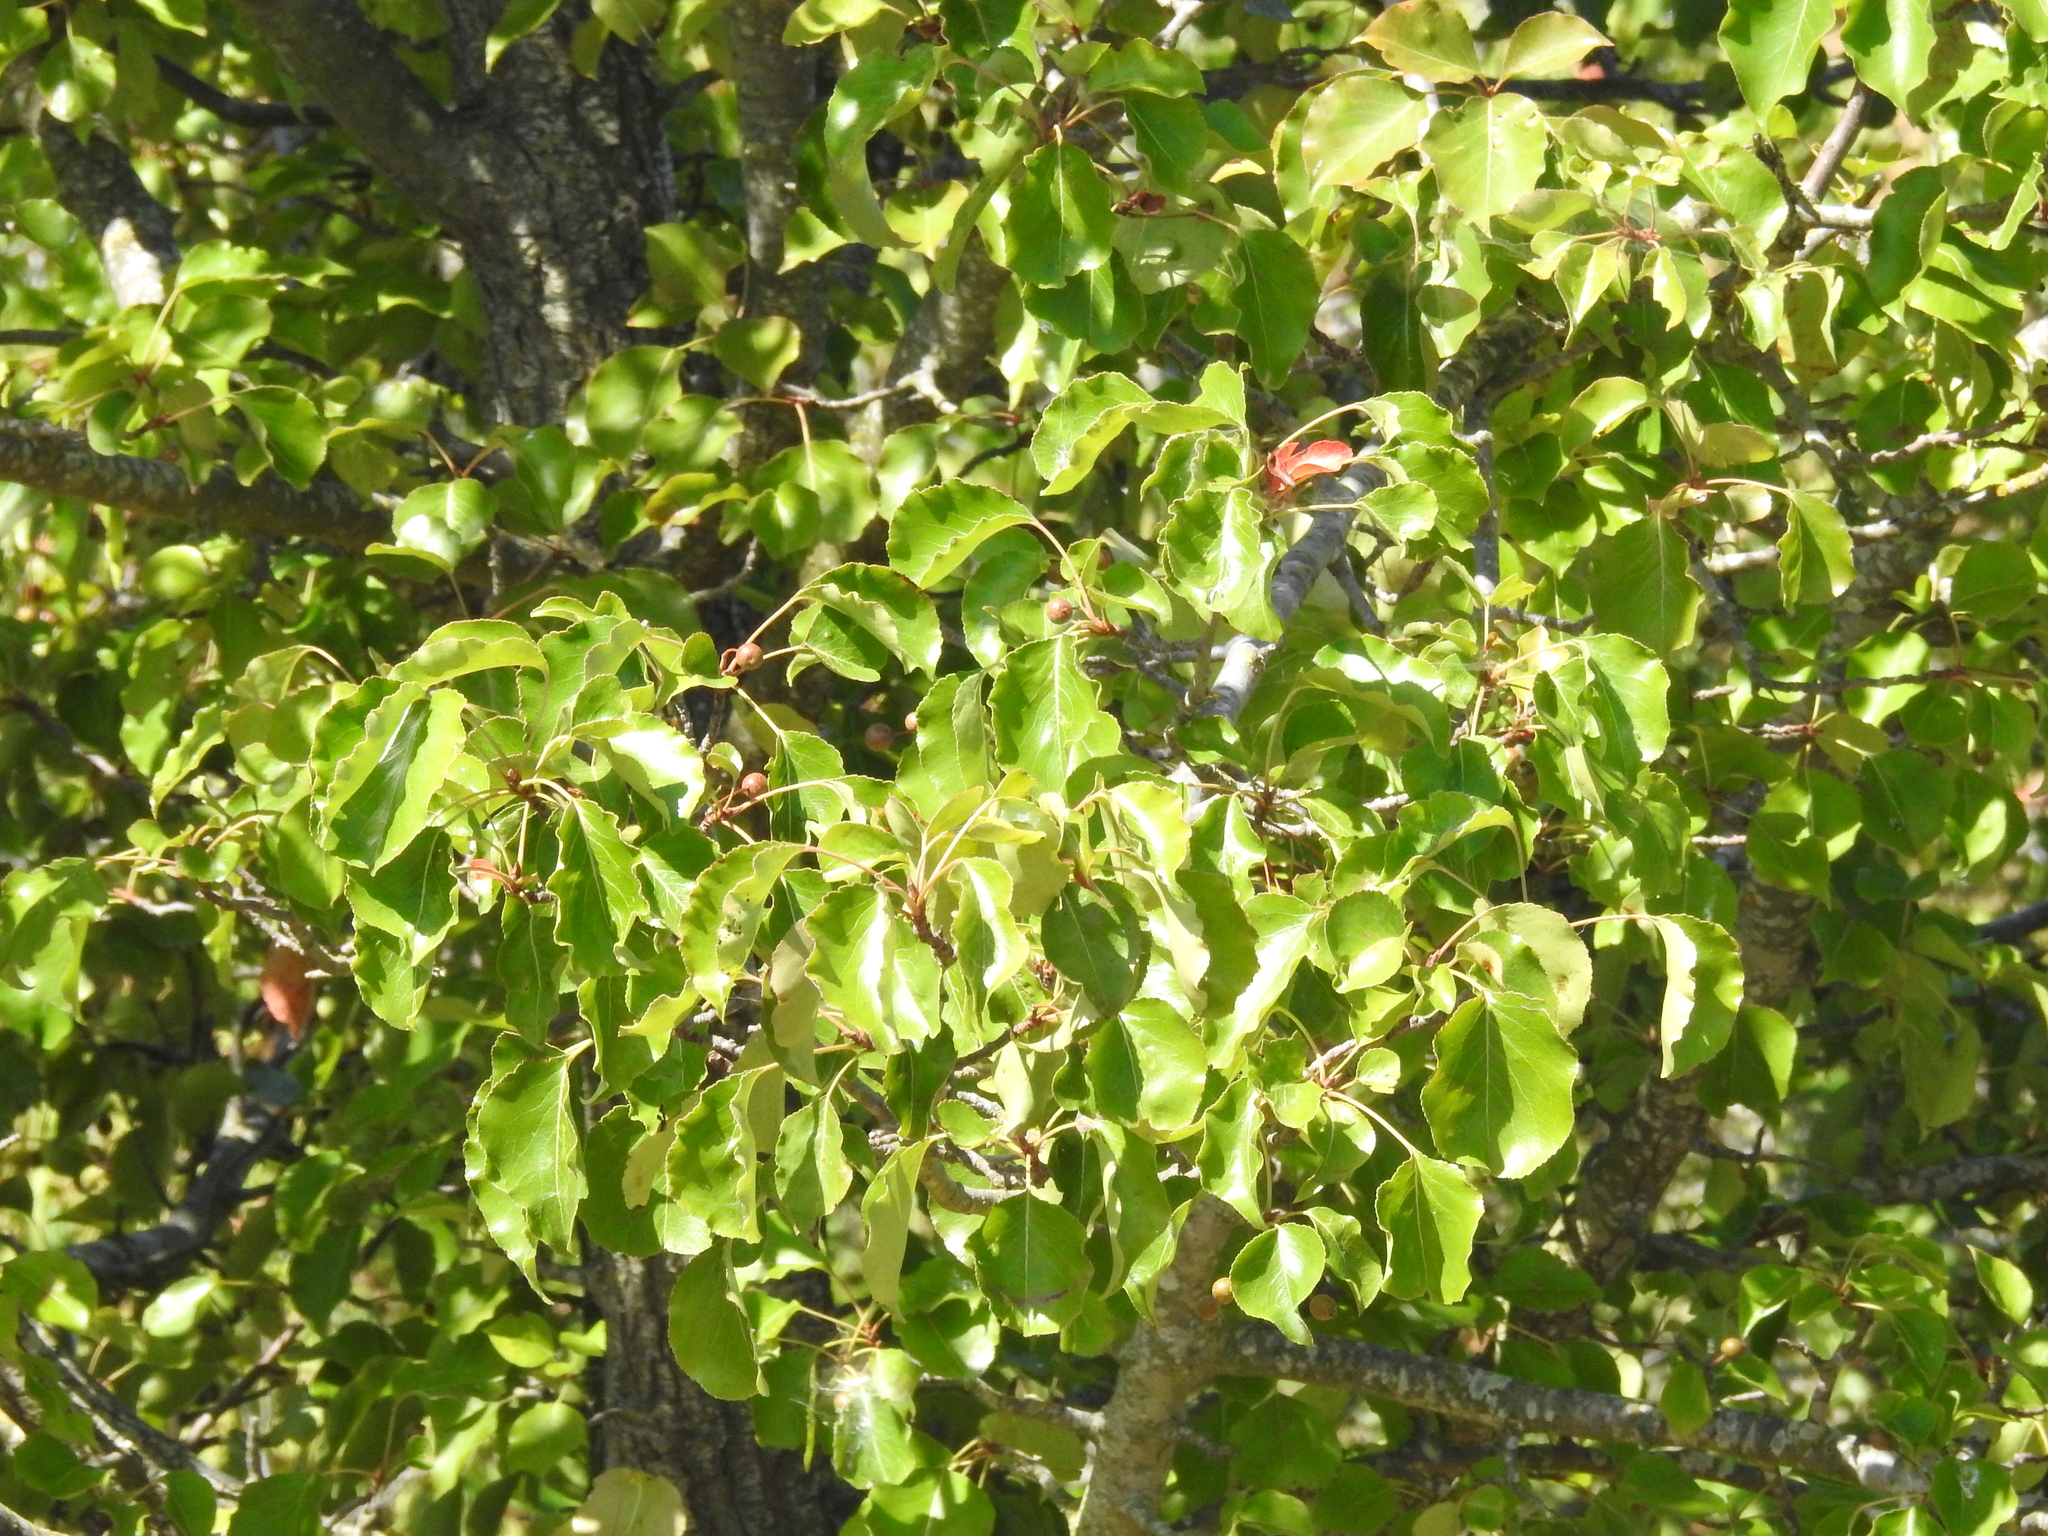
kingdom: Plantae
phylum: Tracheophyta
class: Magnoliopsida
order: Rosales
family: Rosaceae
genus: Pyrus
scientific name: Pyrus calleryana
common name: Callery pear
